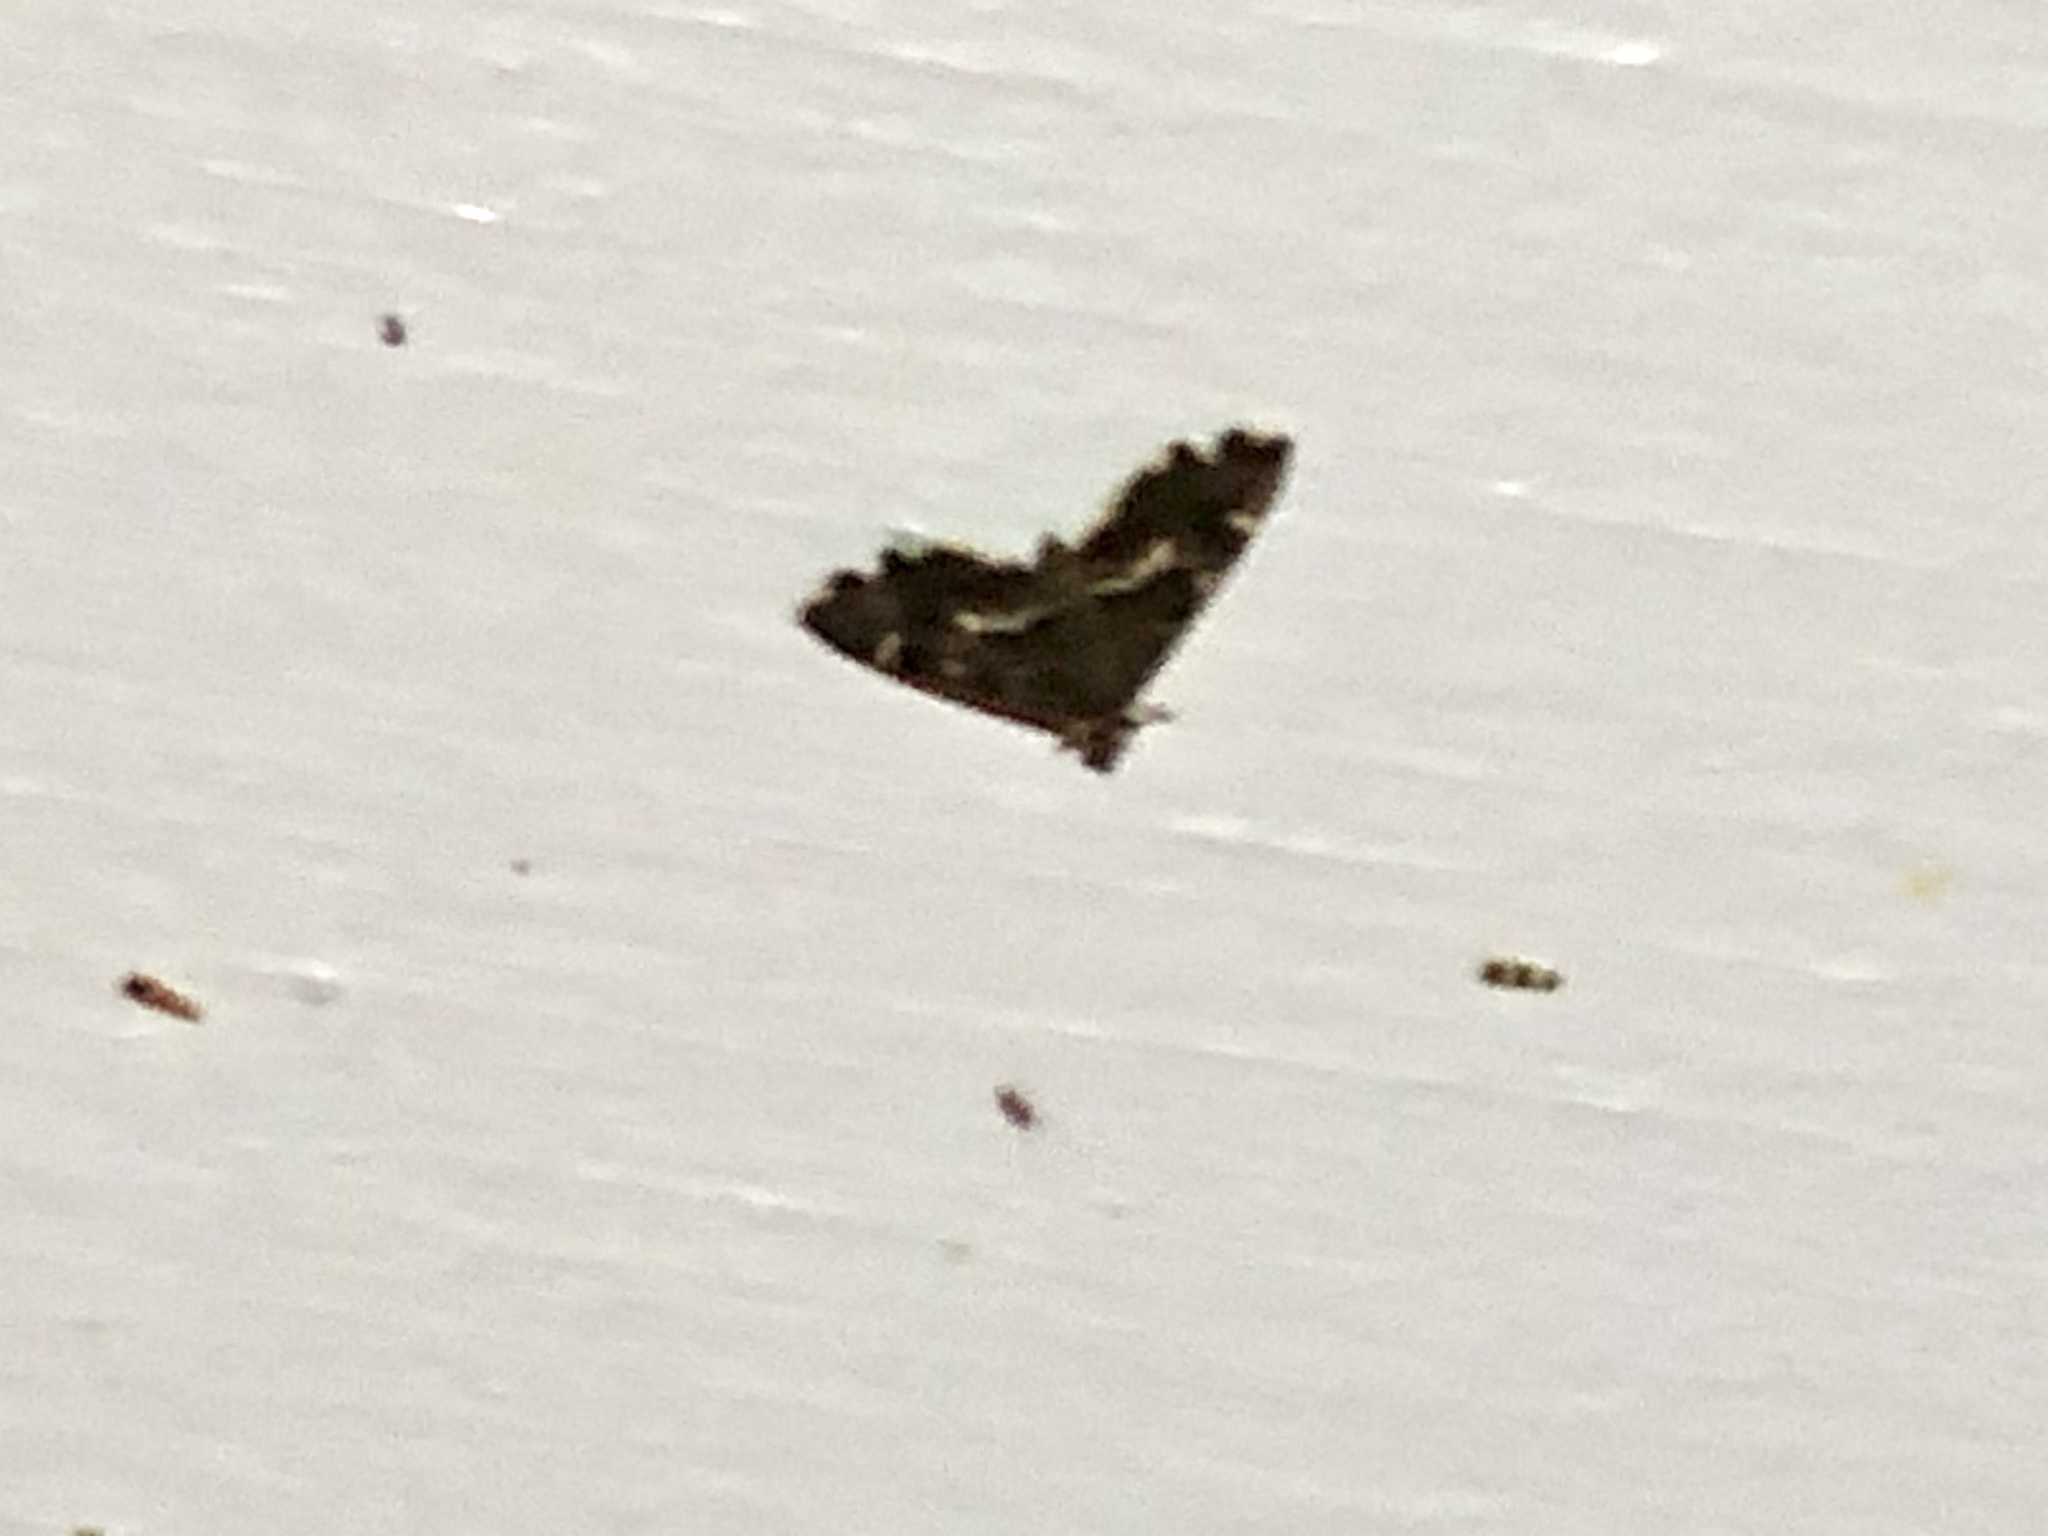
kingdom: Animalia
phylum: Arthropoda
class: Insecta
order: Lepidoptera
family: Crambidae
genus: Hymenia
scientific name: Hymenia perspectalis
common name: Spotted beet webworm
